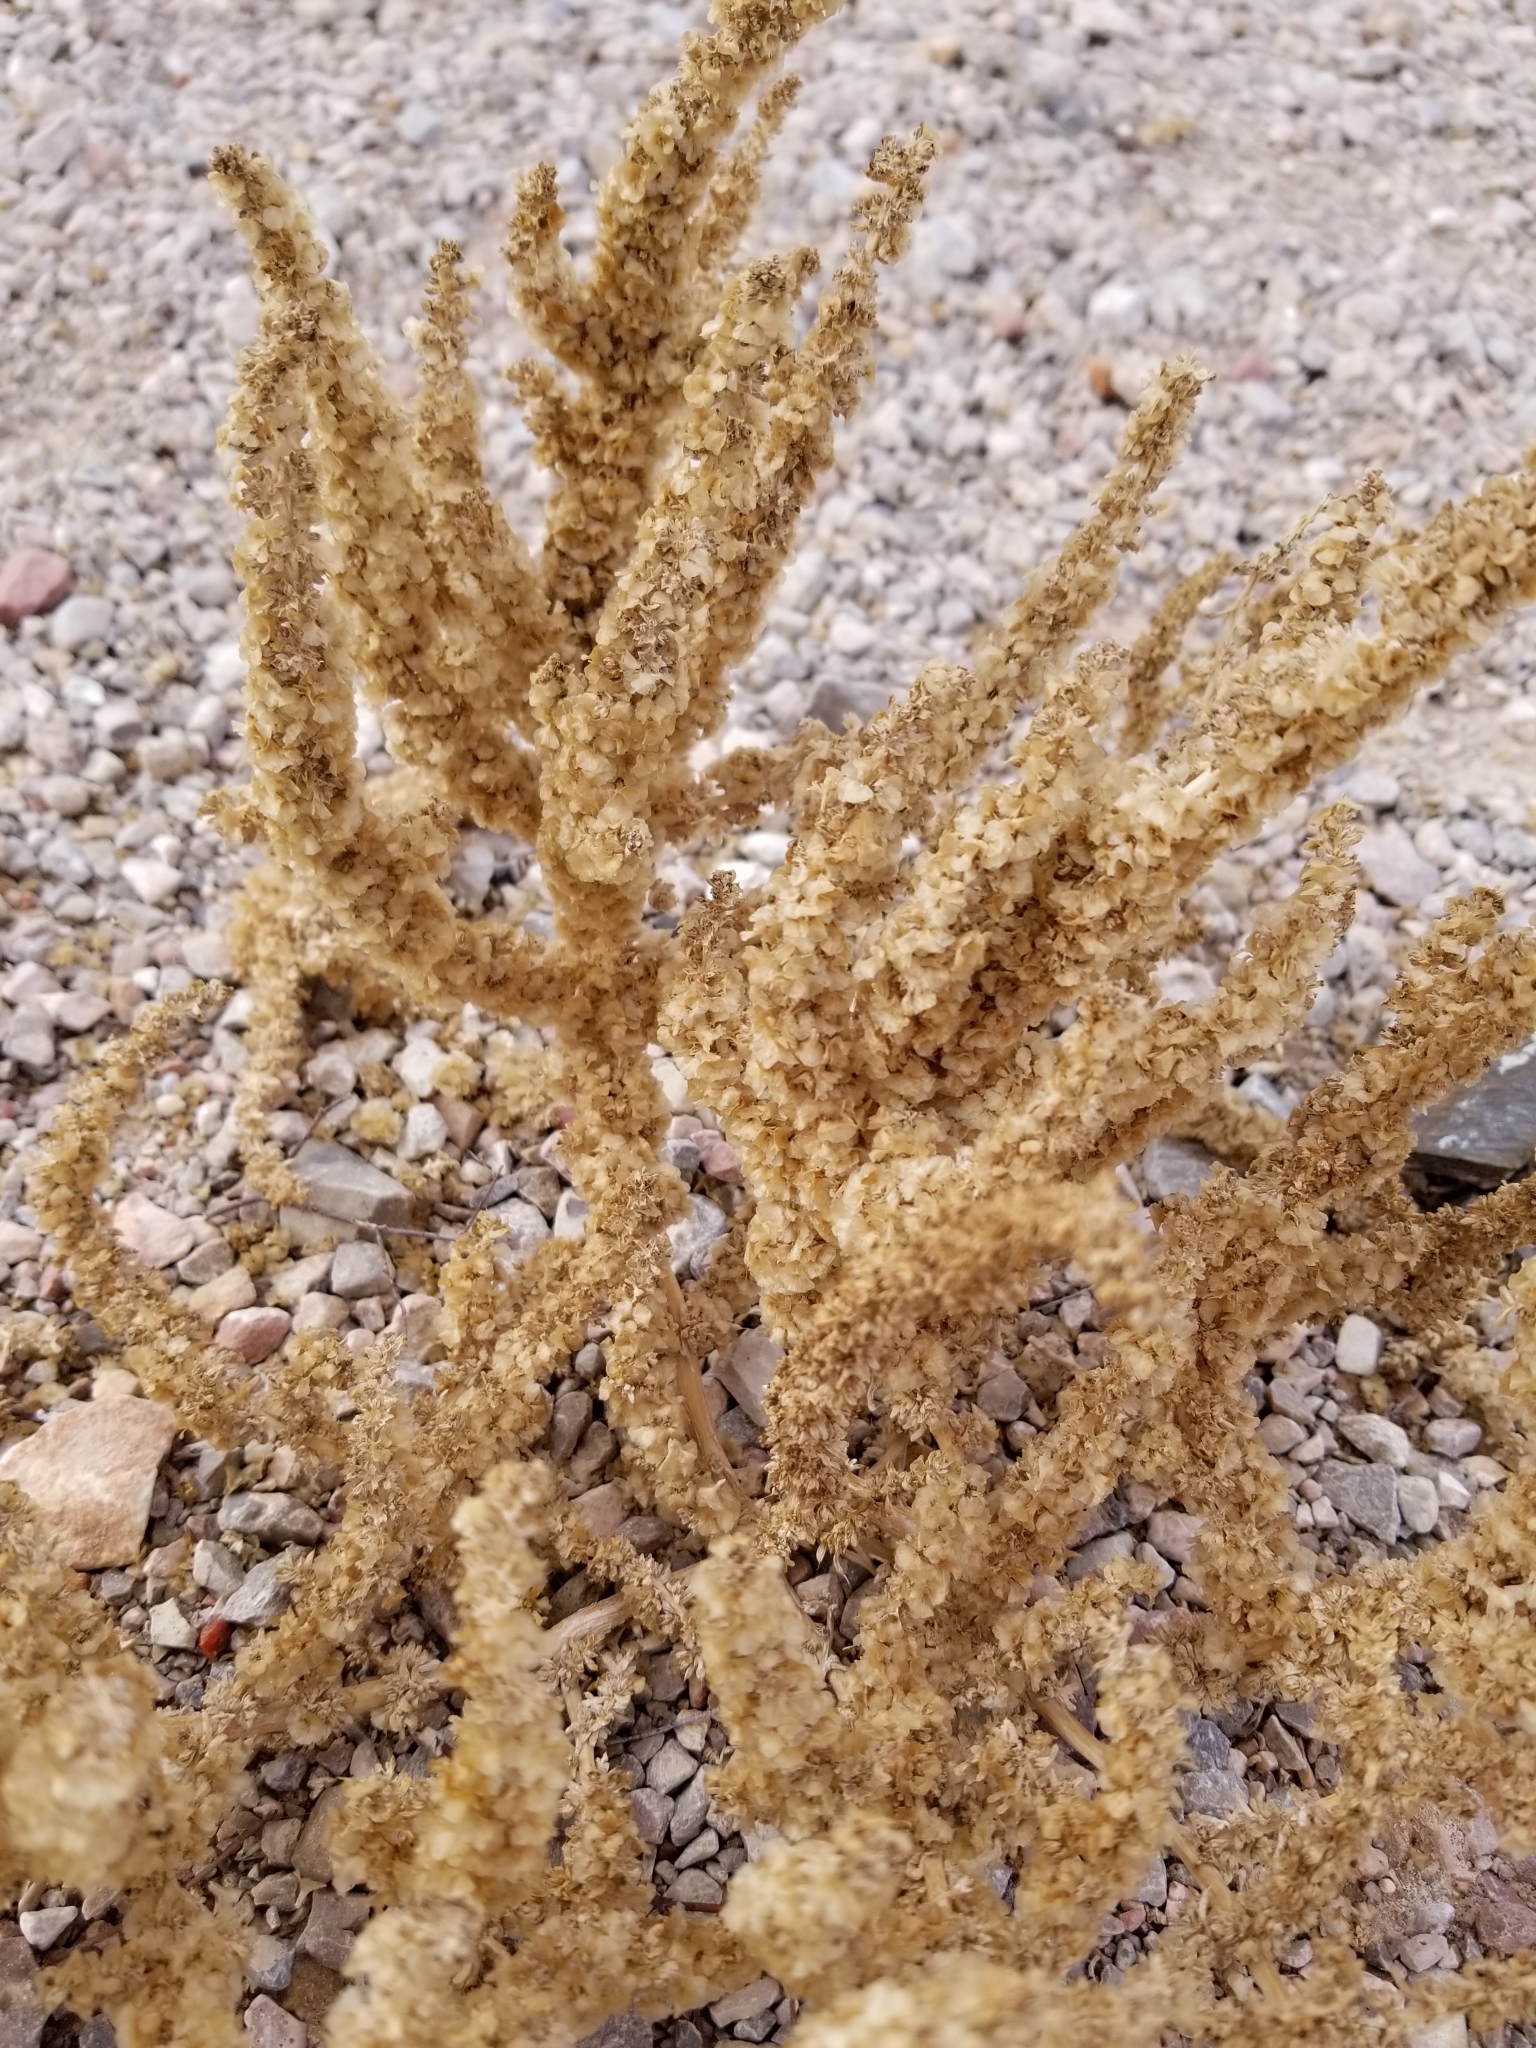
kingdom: Plantae
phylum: Tracheophyta
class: Magnoliopsida
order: Caryophyllales
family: Amaranthaceae
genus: Halogeton
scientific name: Halogeton glomeratus
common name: Saltlover
